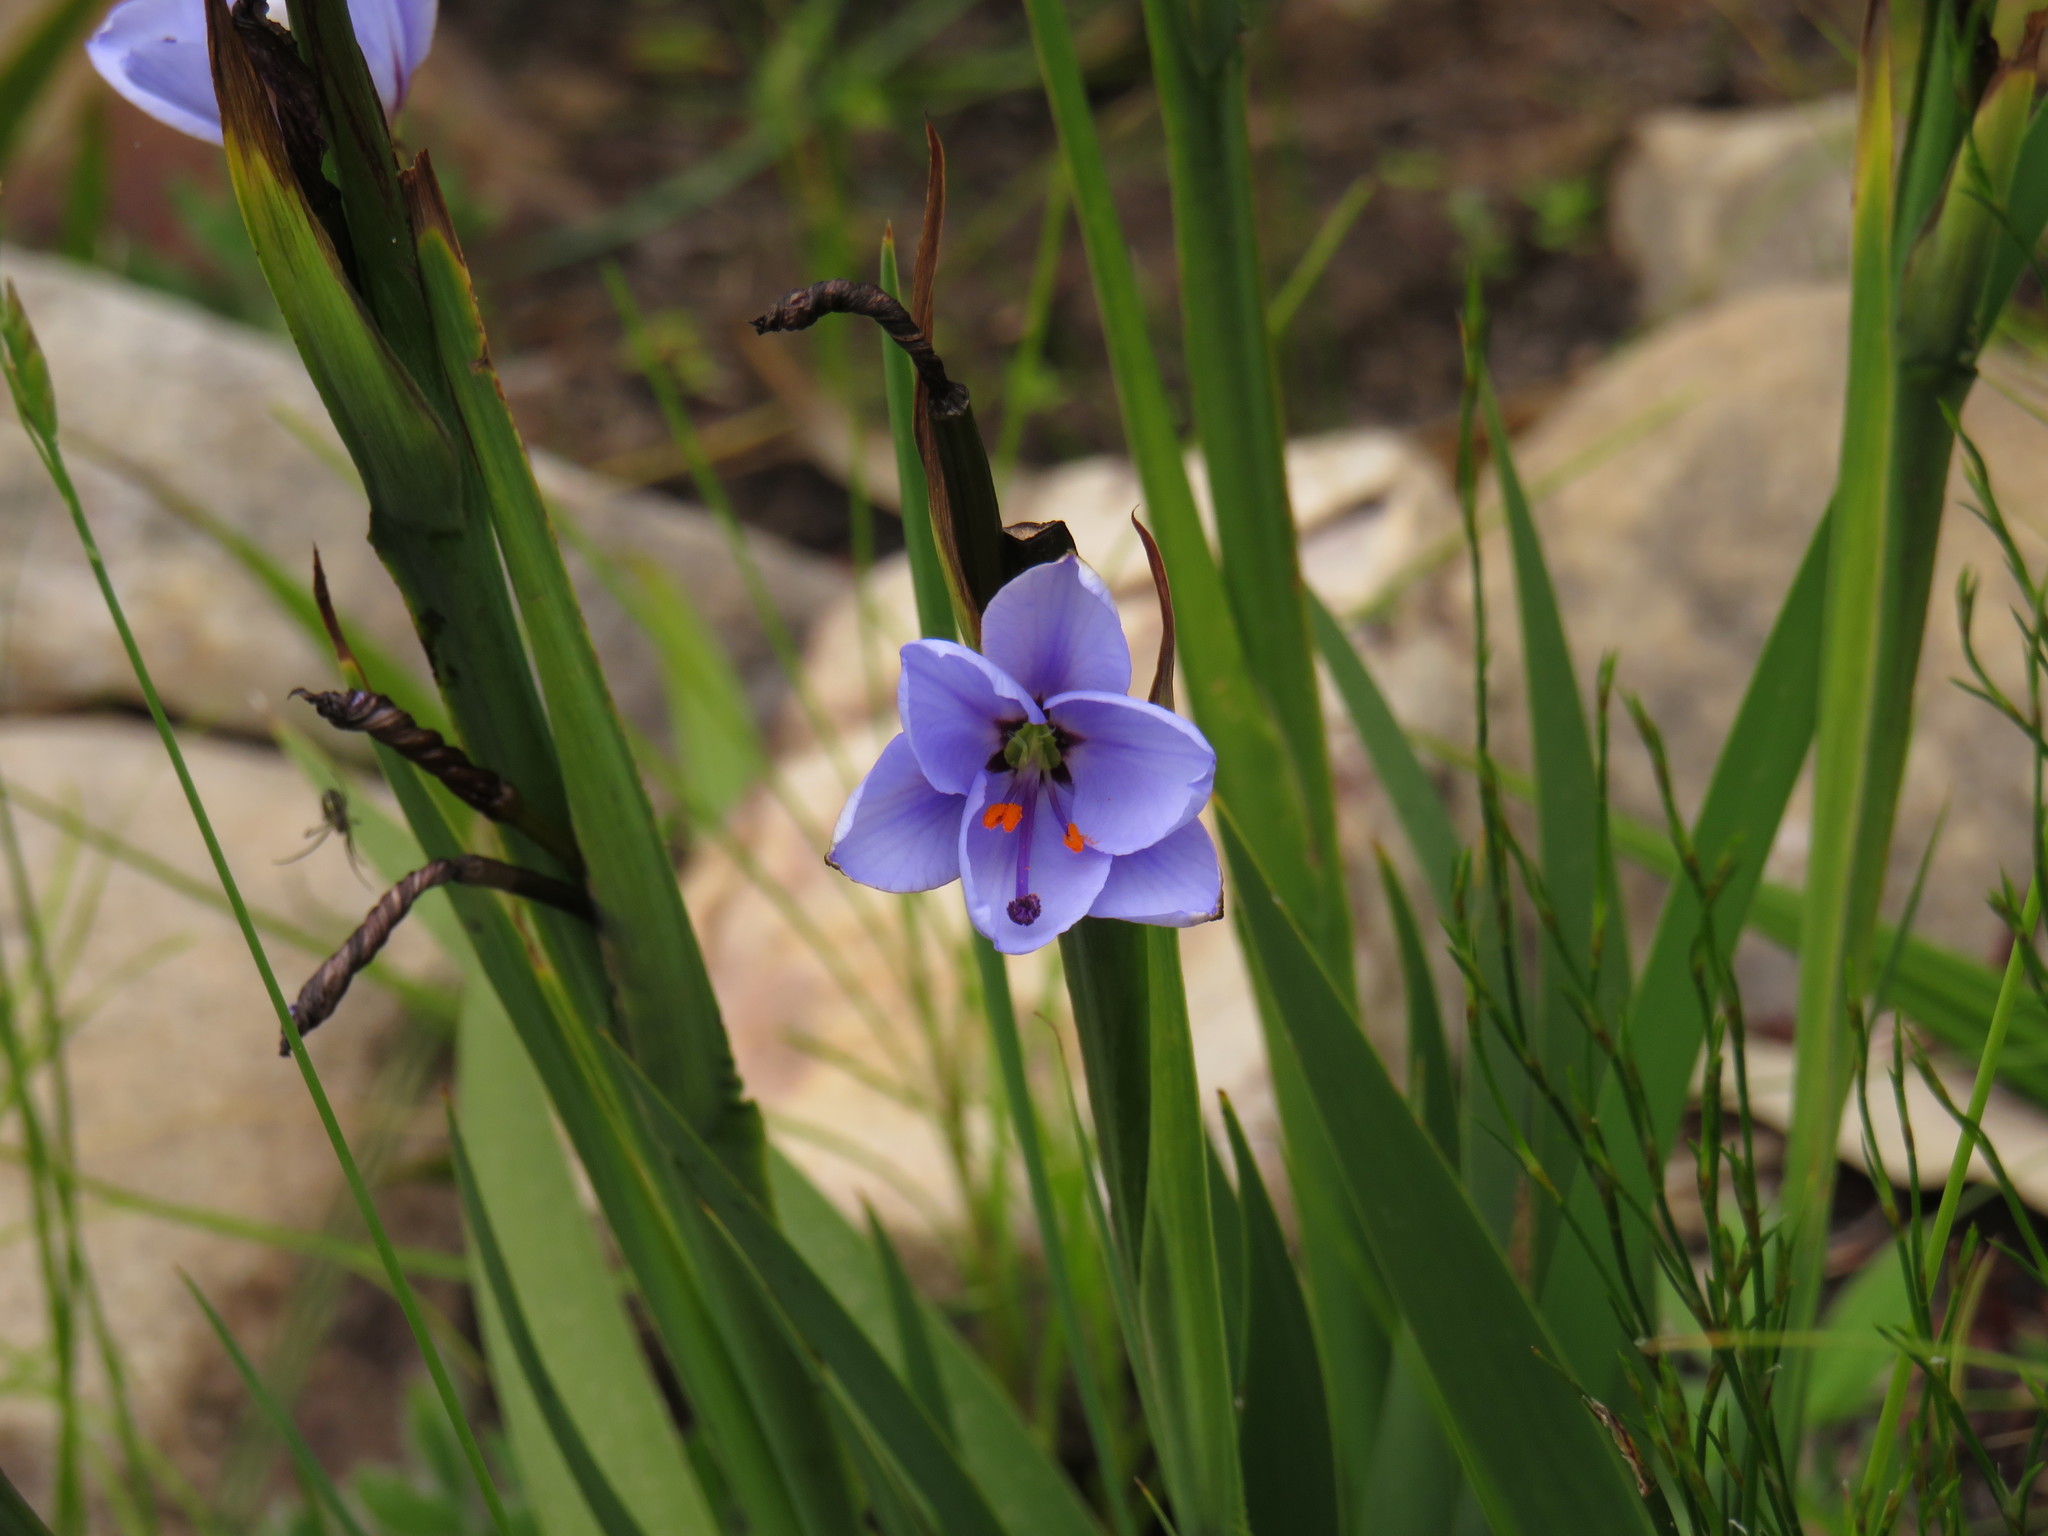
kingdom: Plantae
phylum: Tracheophyta
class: Liliopsida
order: Asparagales
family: Iridaceae
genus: Aristea
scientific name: Aristea spiralis
